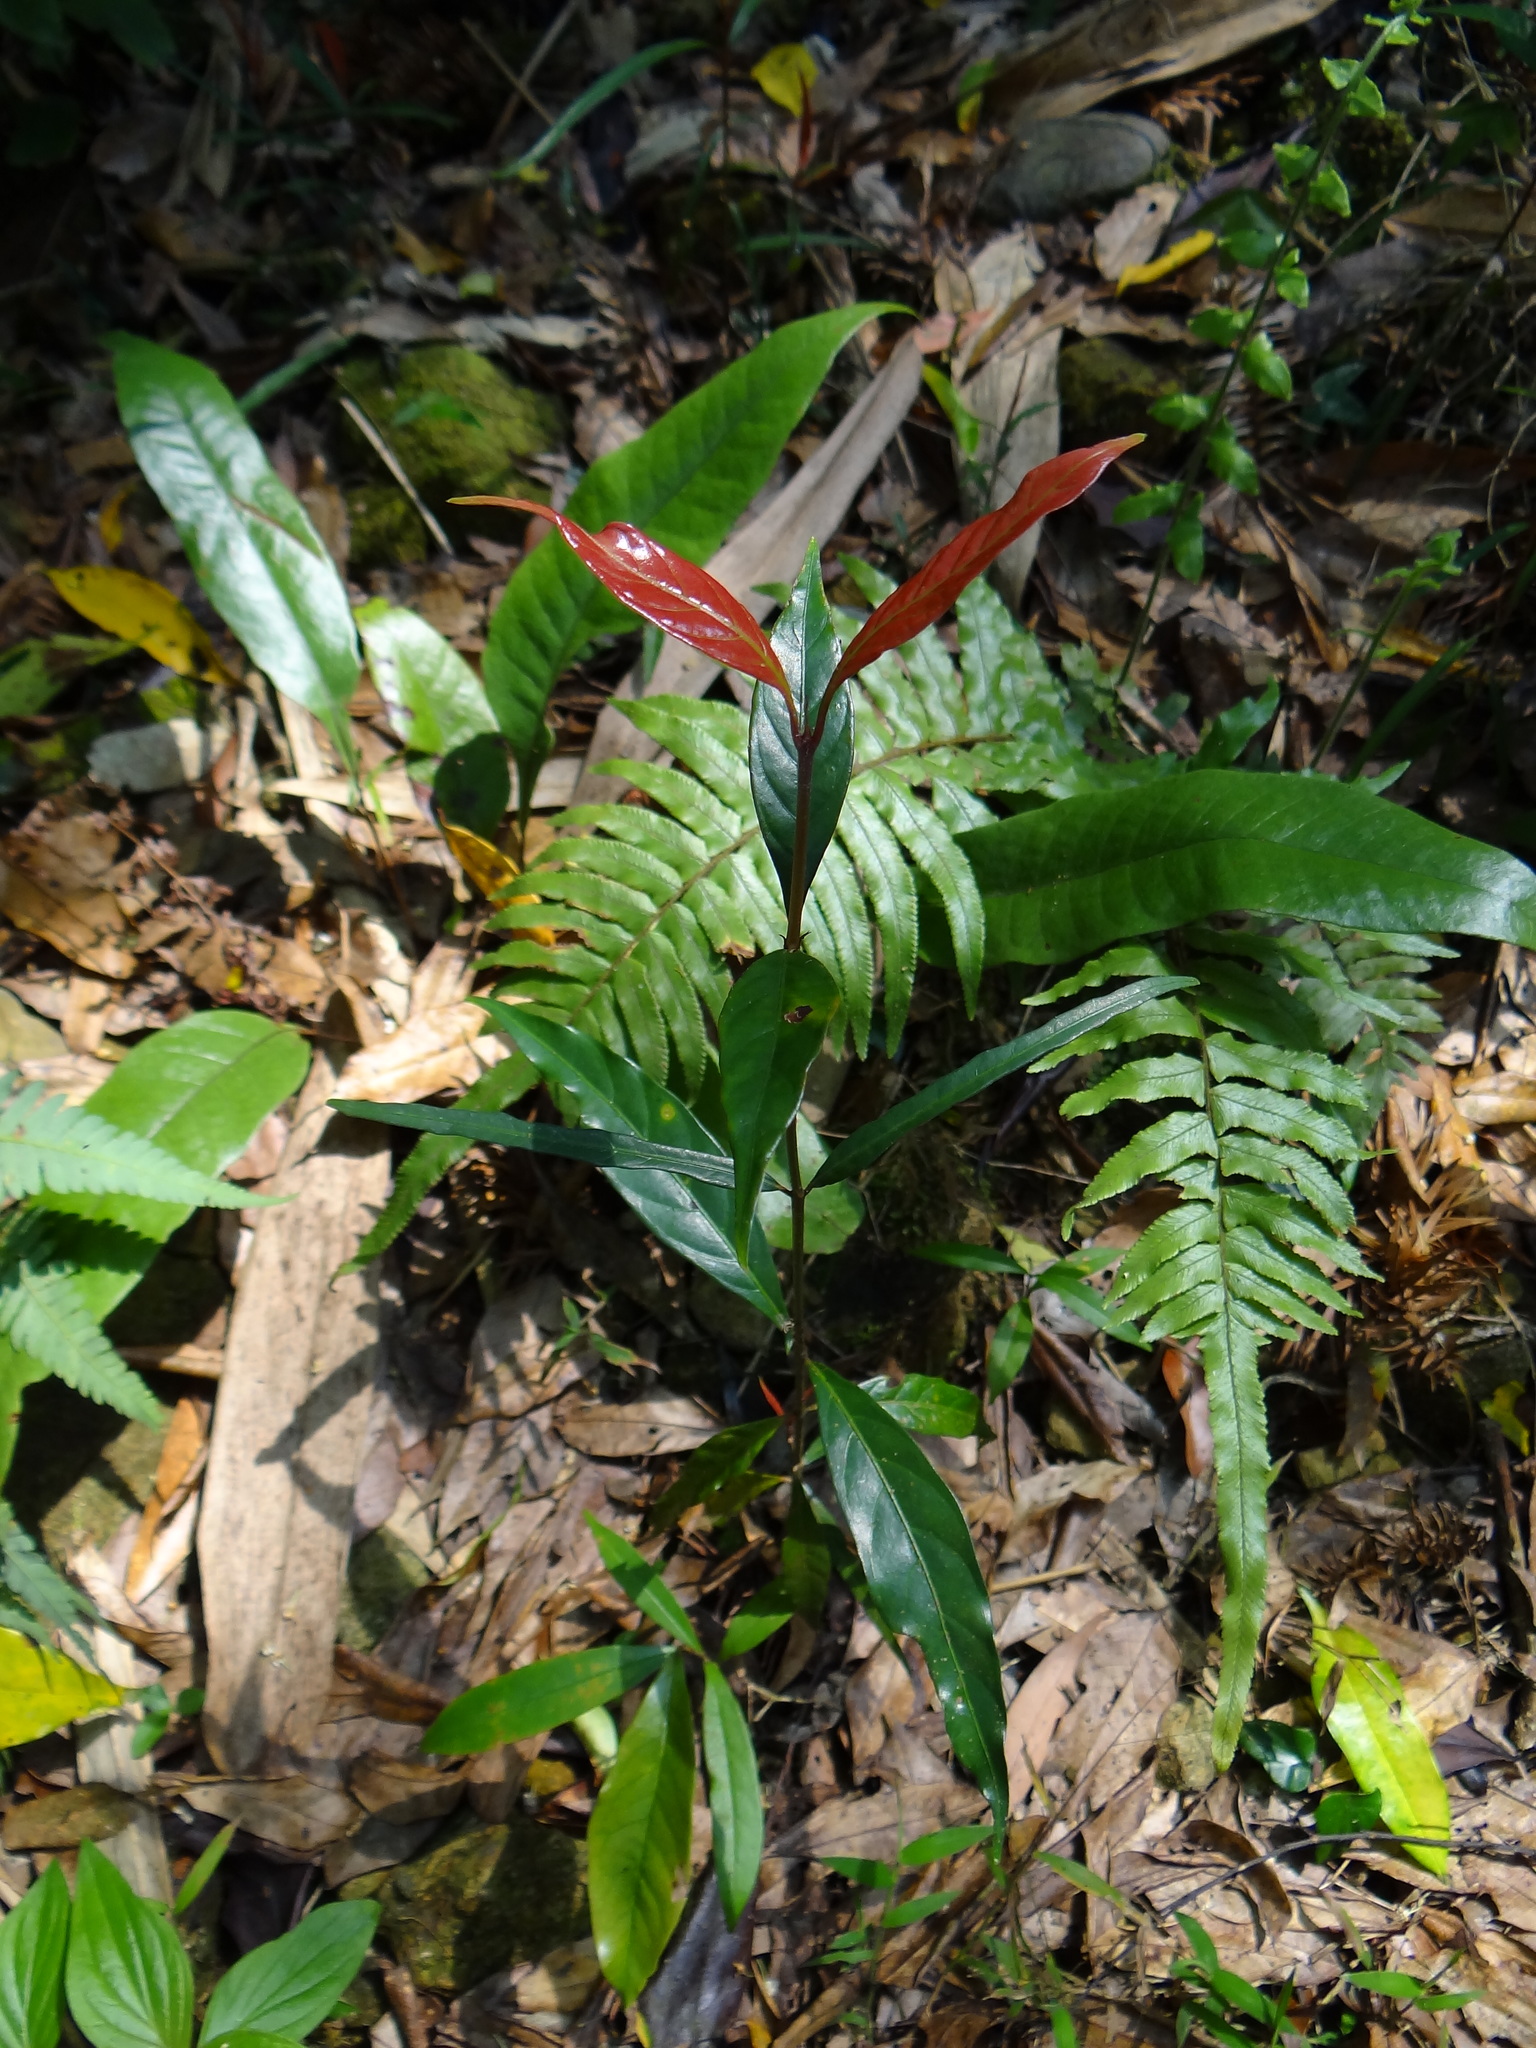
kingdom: Plantae
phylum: Tracheophyta
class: Magnoliopsida
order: Gentianales
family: Rubiaceae
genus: Aidia
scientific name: Aidia cochinchinensis
